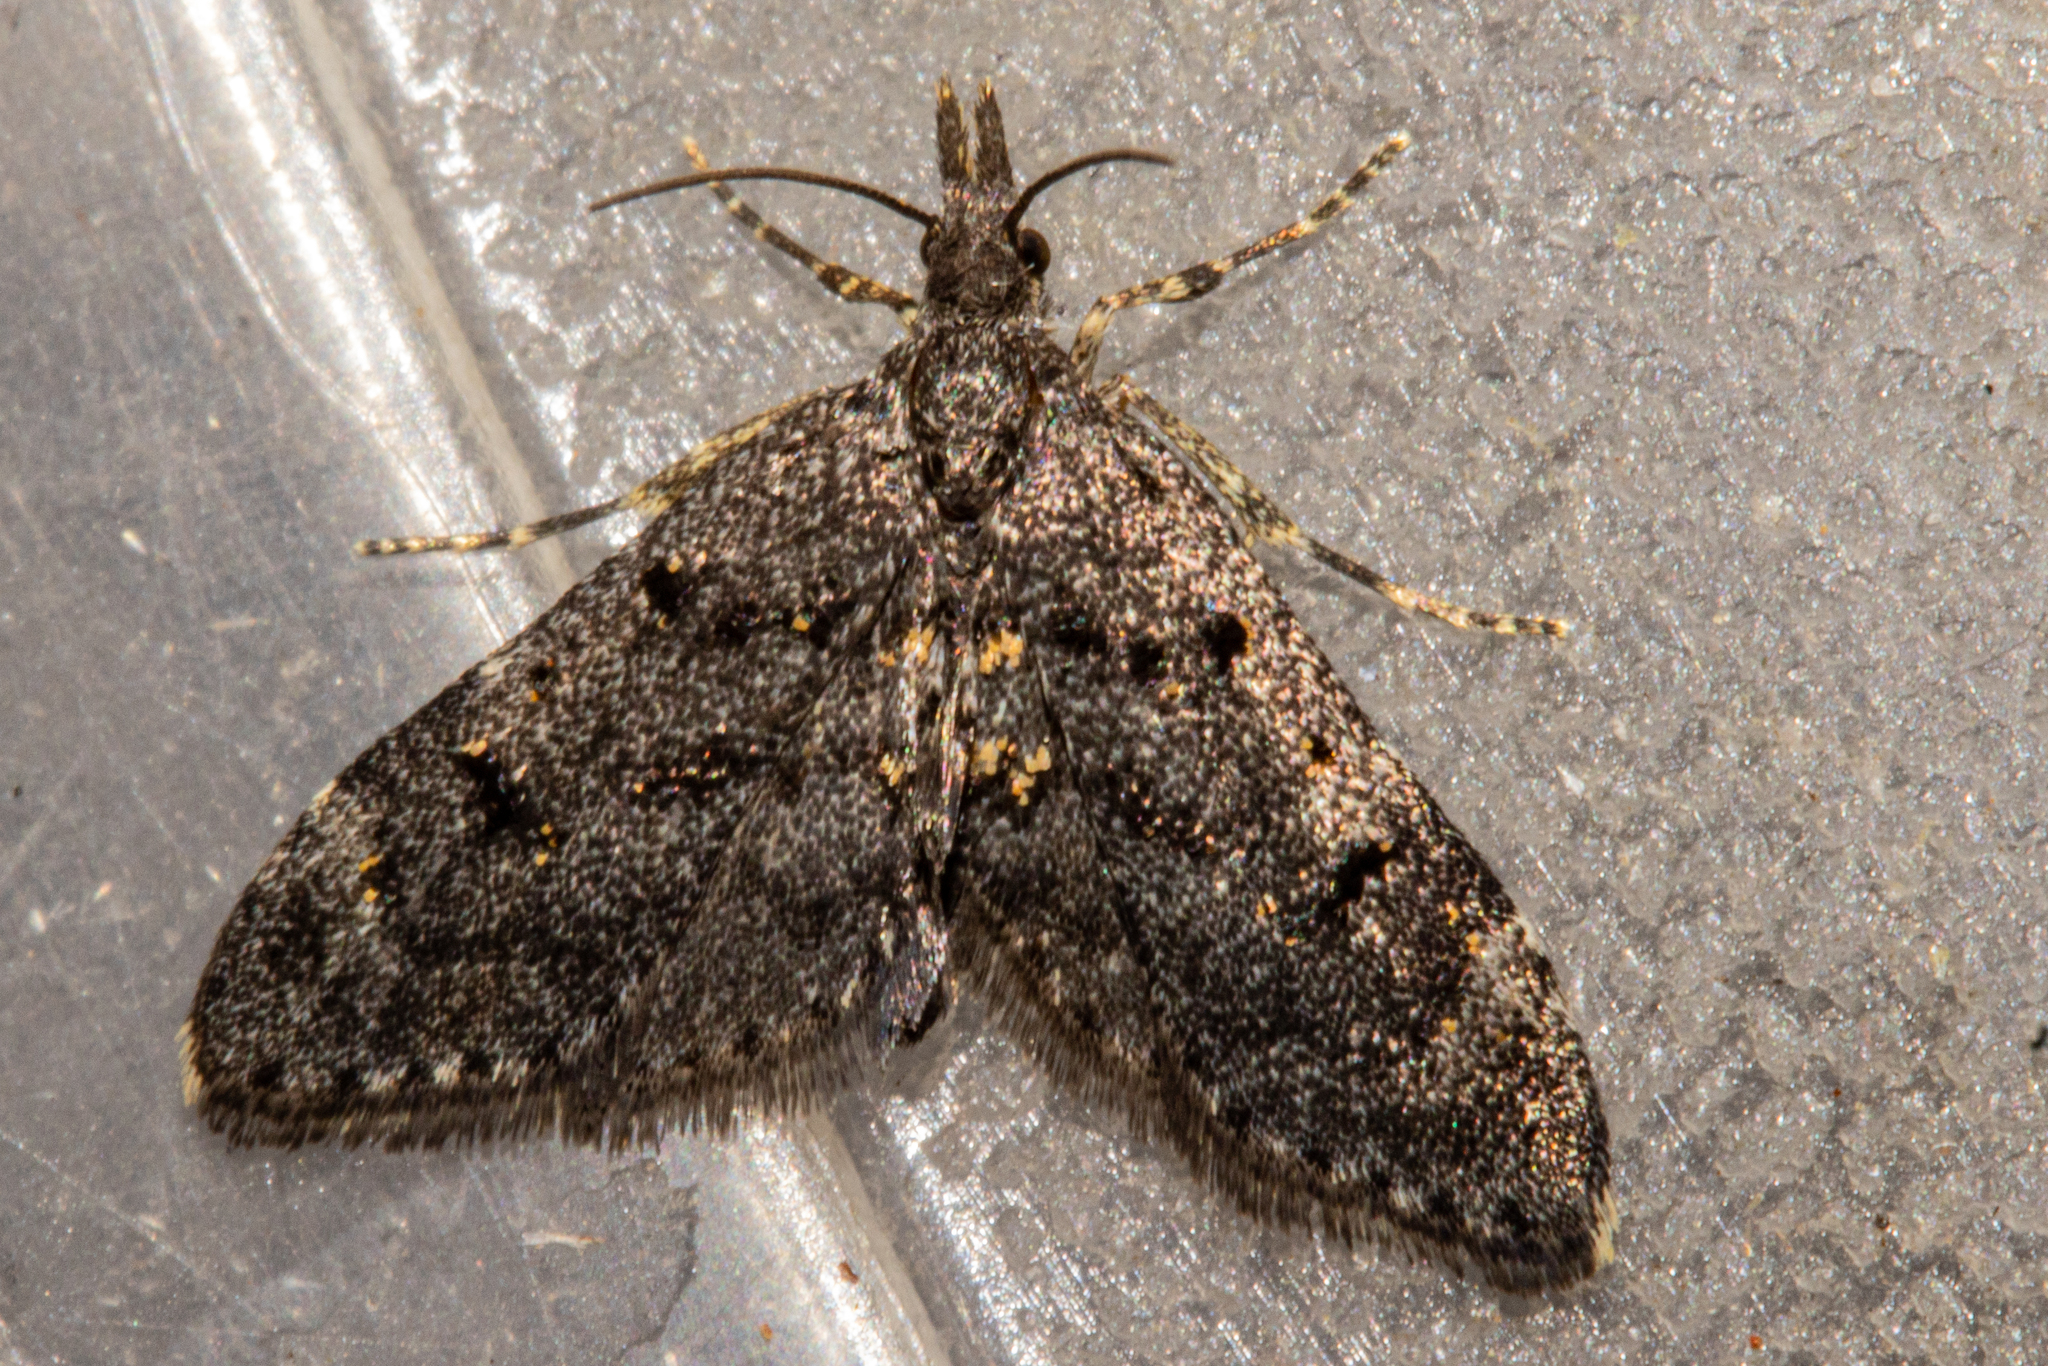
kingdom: Animalia
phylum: Arthropoda
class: Insecta
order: Lepidoptera
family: Copromorphidae
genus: Isonomeutis
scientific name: Isonomeutis amauropa
